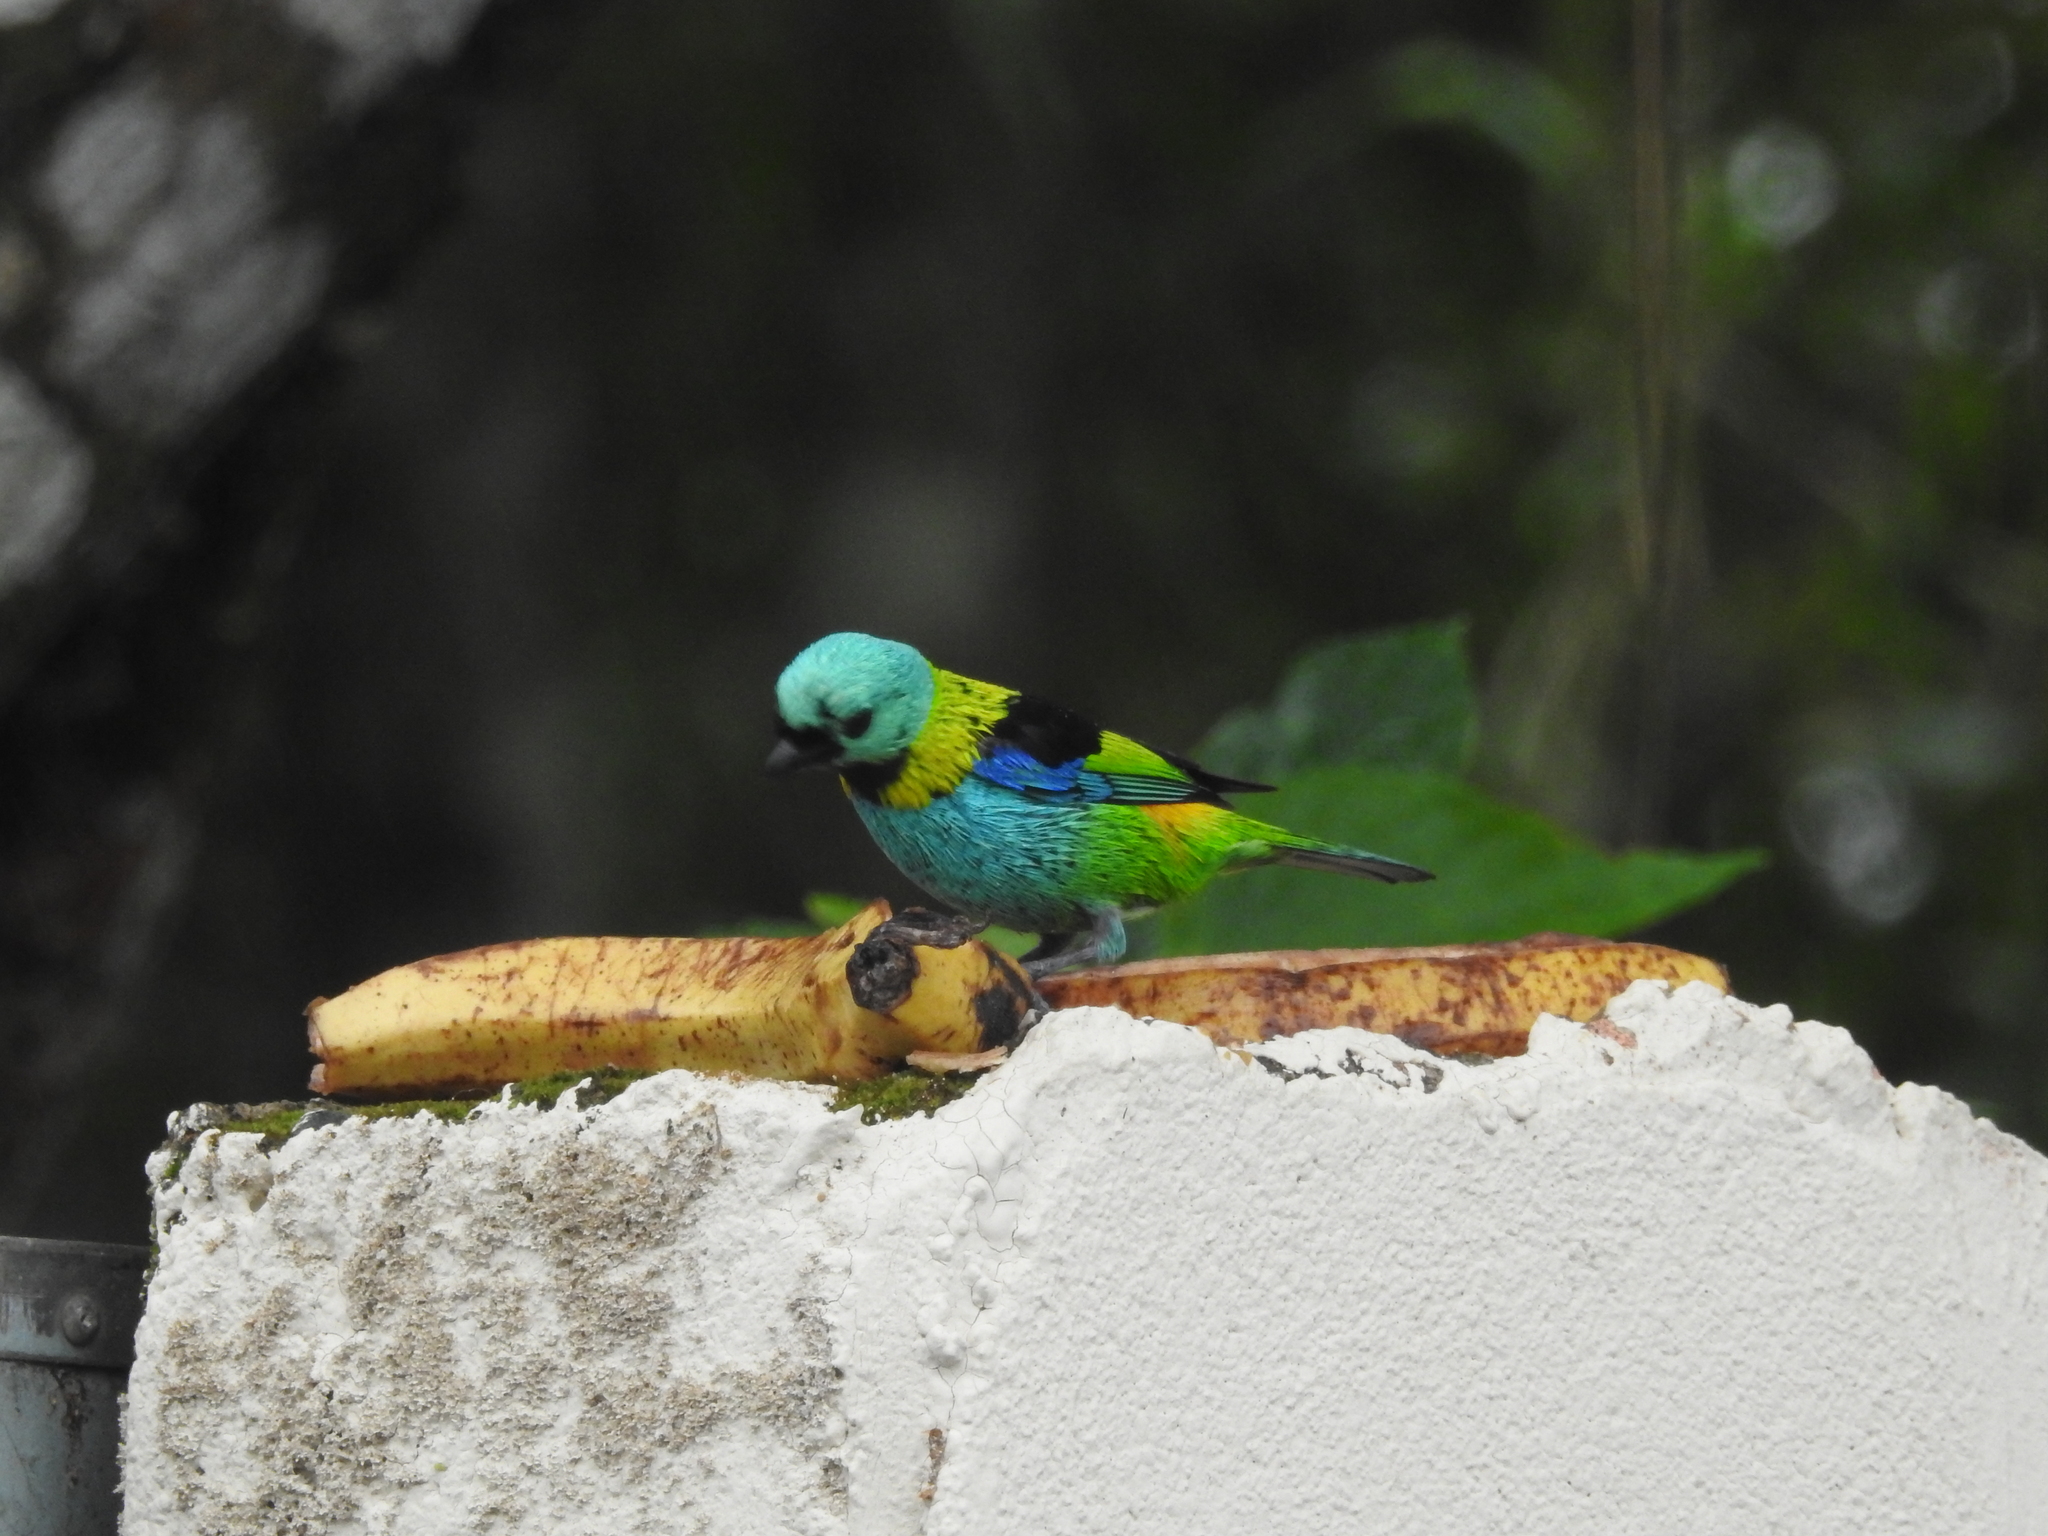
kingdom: Animalia
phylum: Chordata
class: Aves
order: Passeriformes
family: Thraupidae
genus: Tangara
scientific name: Tangara seledon
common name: Green-headed tanager
